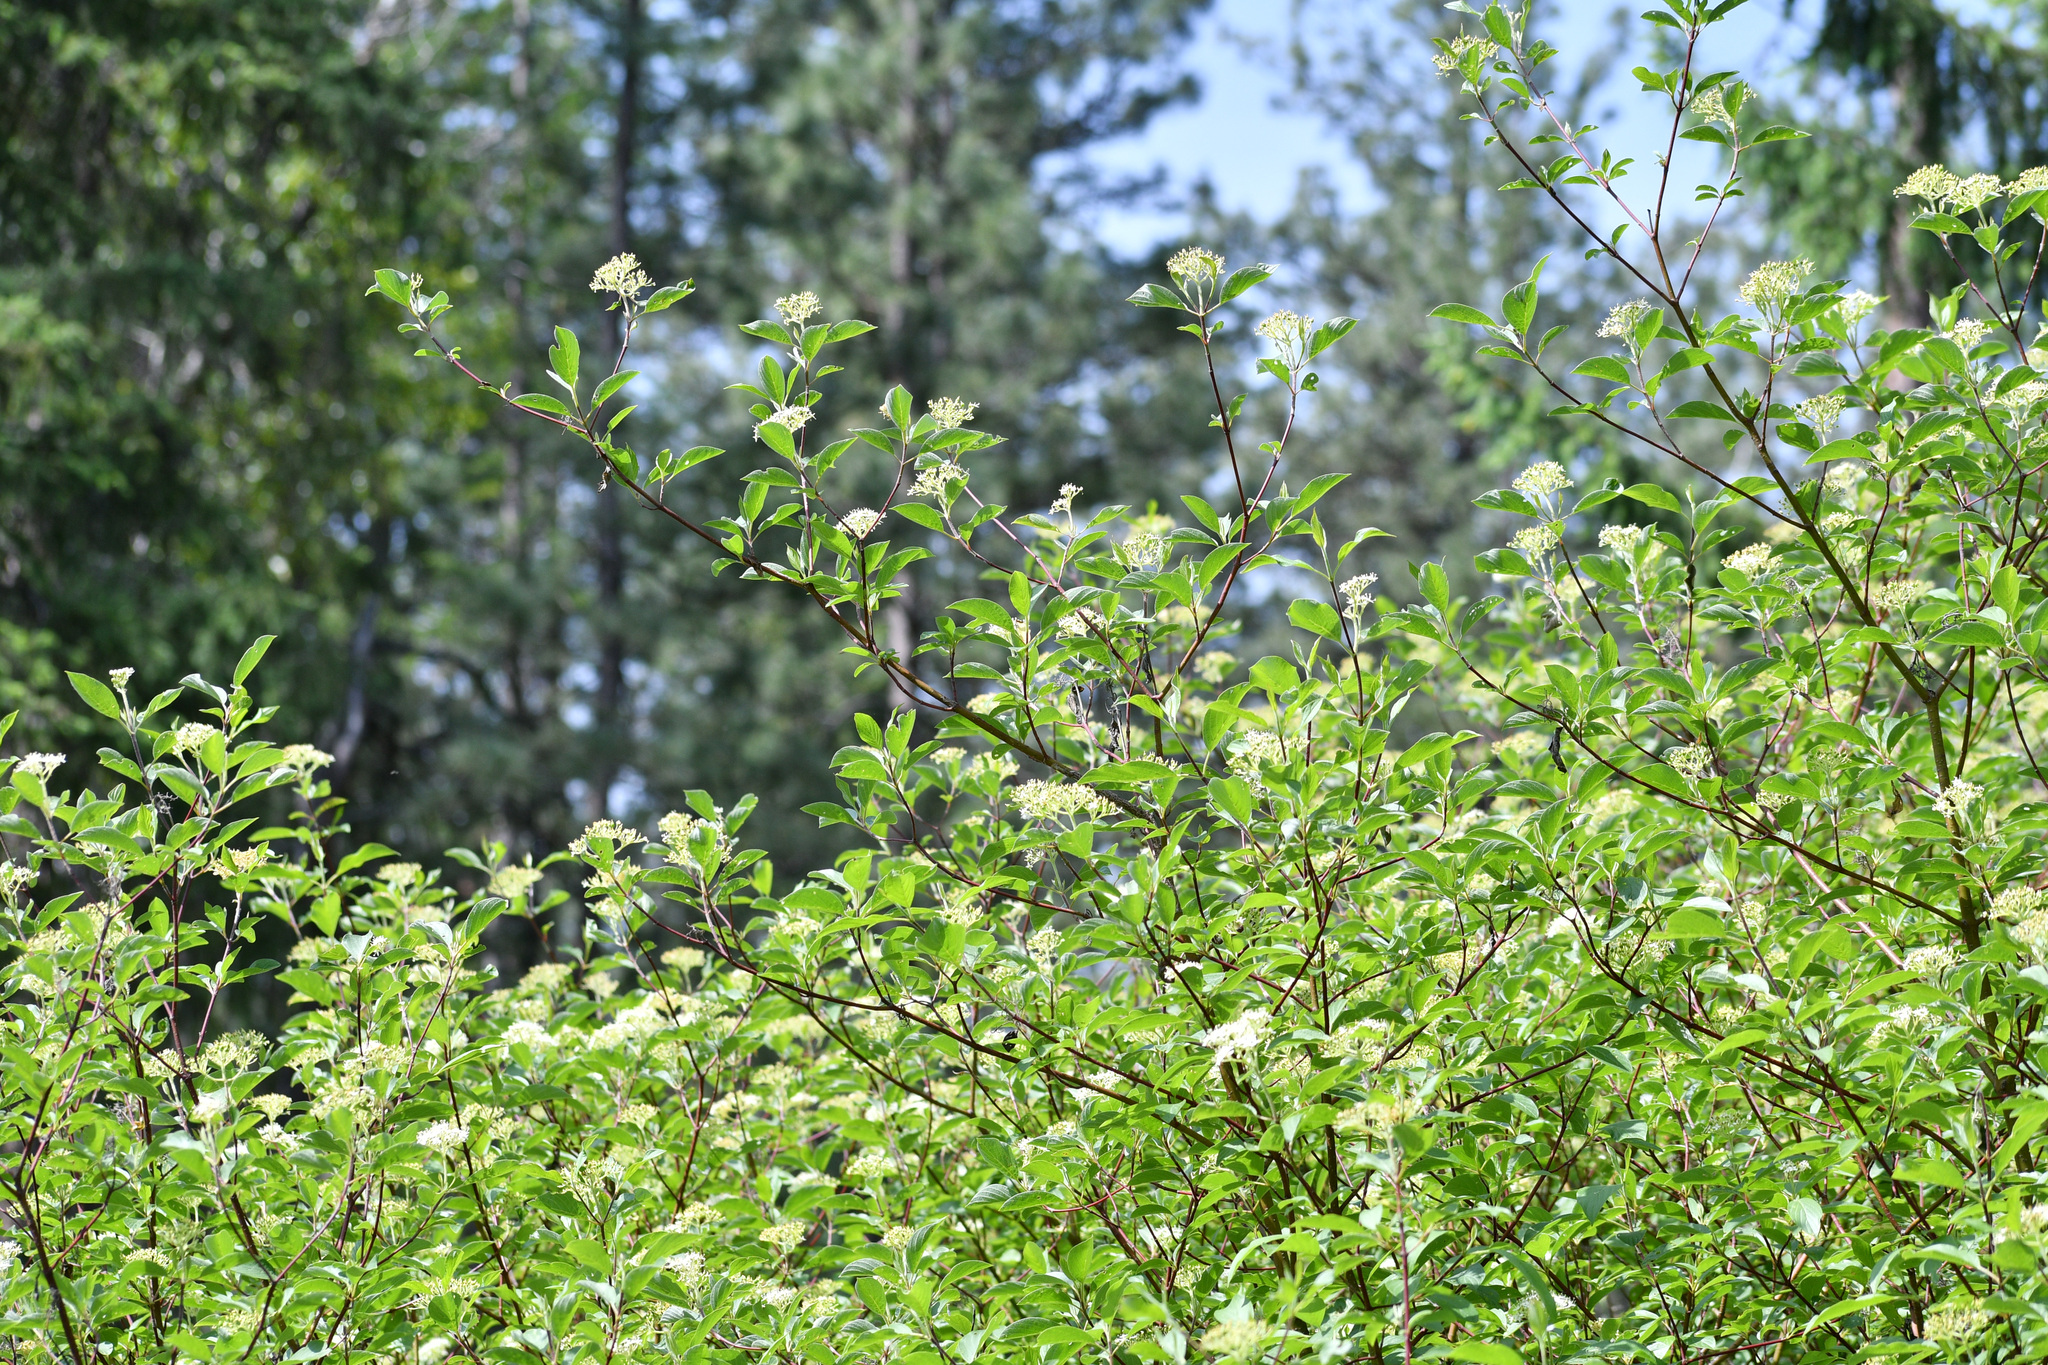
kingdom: Plantae
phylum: Tracheophyta
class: Magnoliopsida
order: Cornales
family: Cornaceae
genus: Cornus
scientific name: Cornus sericea
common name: Red-osier dogwood
